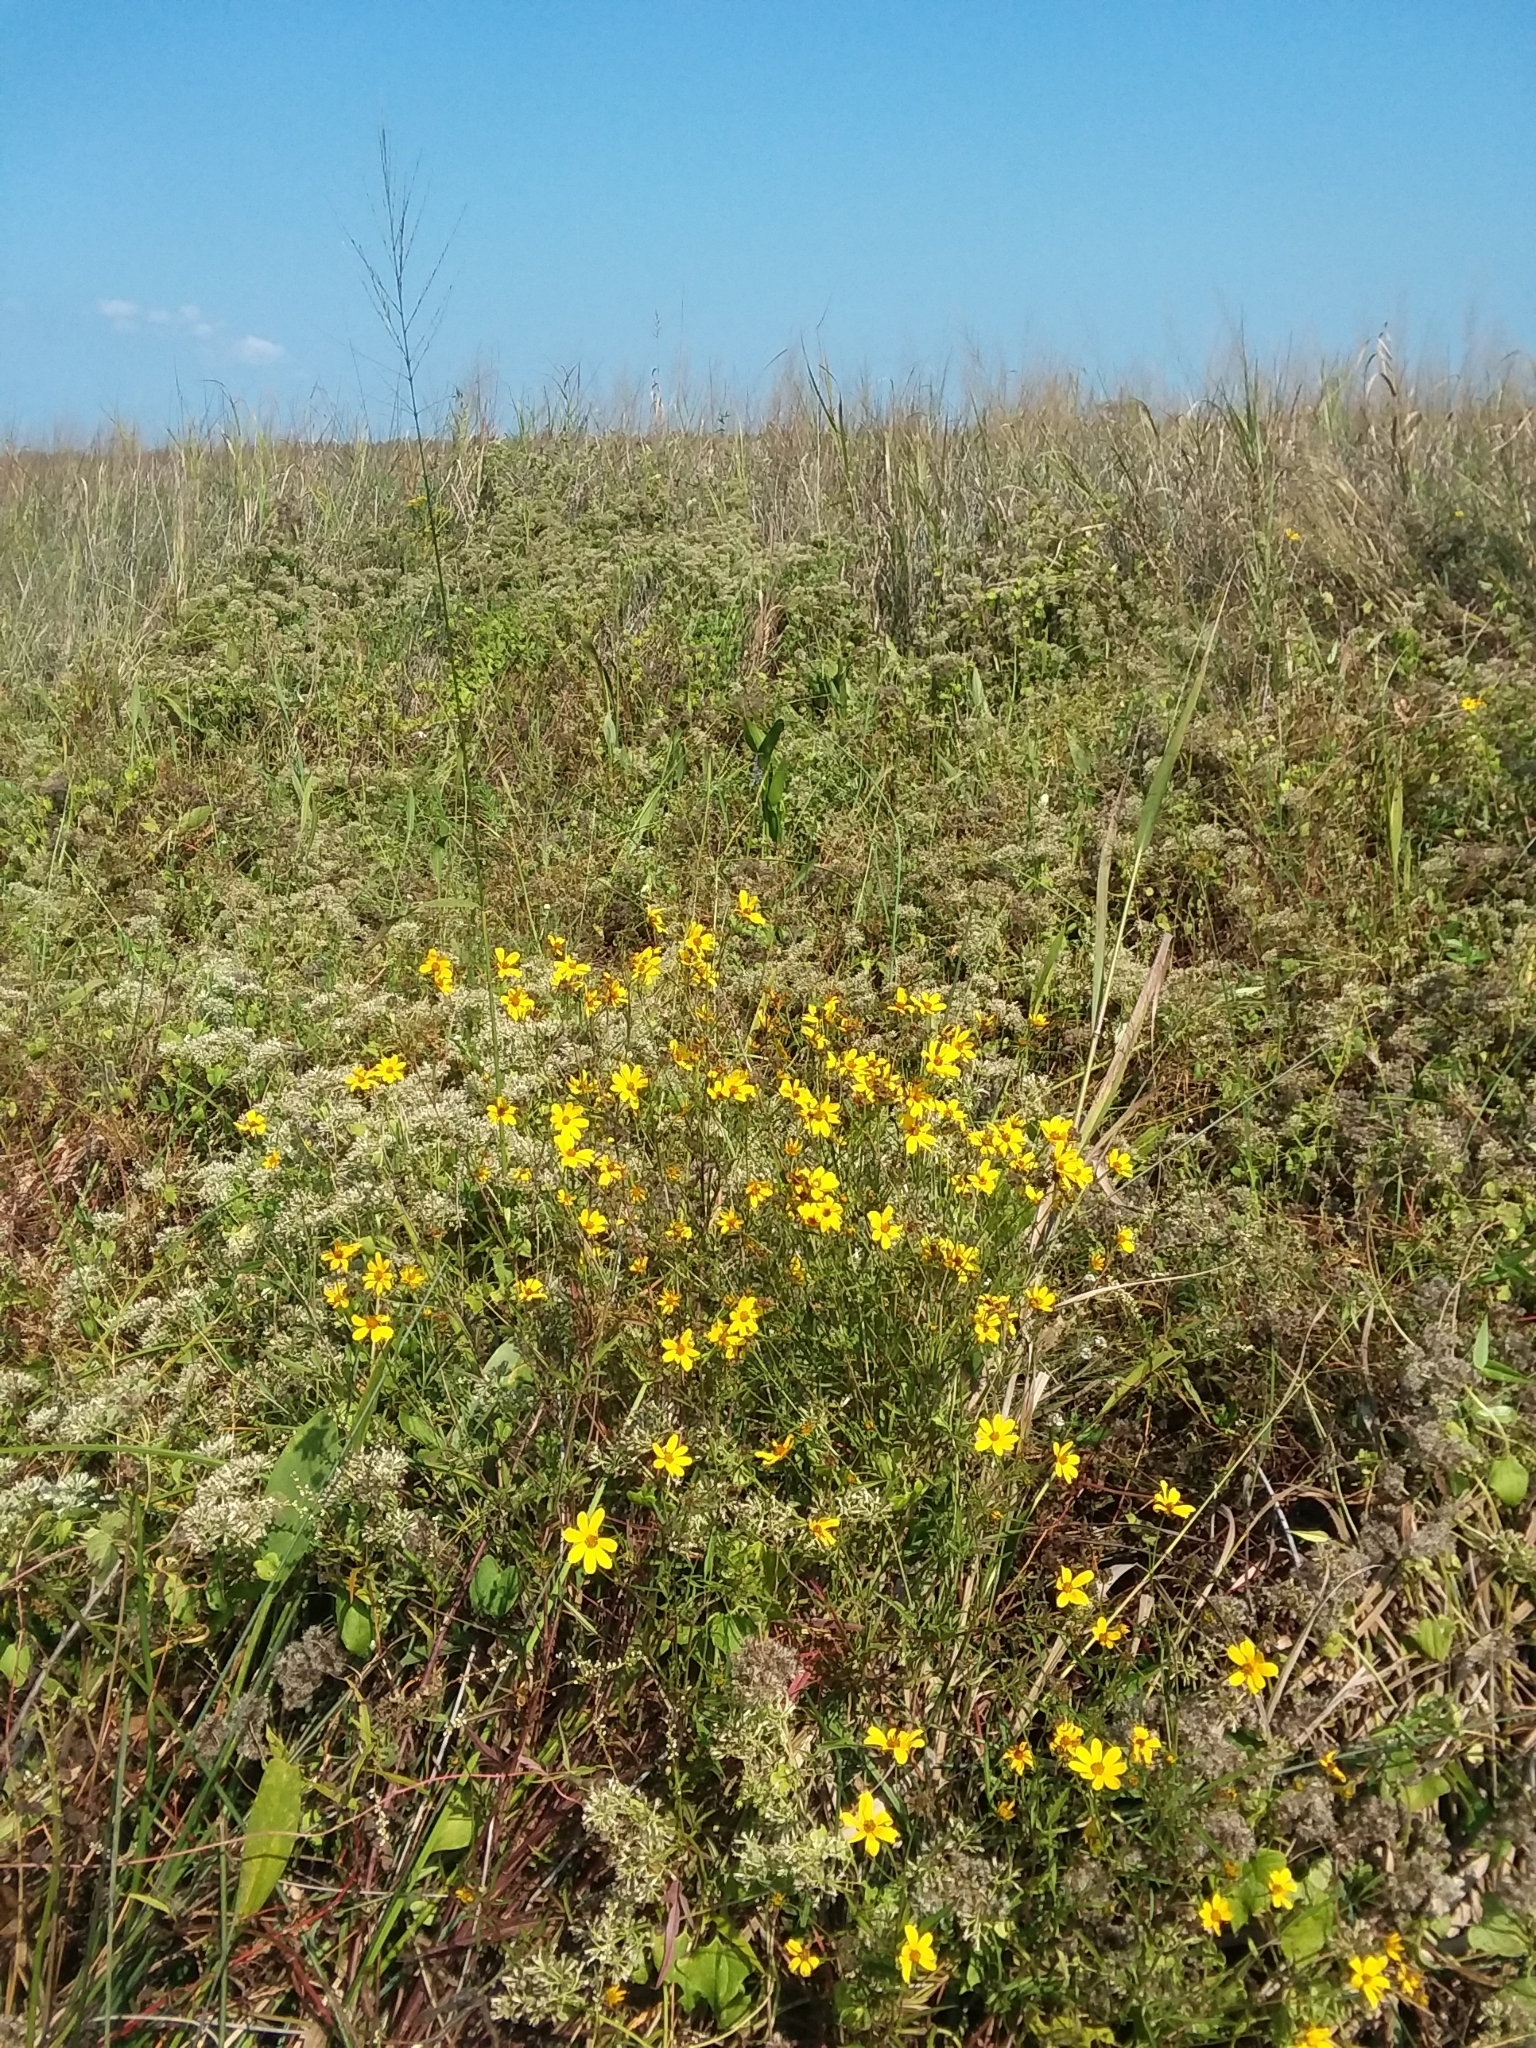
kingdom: Plantae
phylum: Tracheophyta
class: Magnoliopsida
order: Asterales
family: Asteraceae
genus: Bidens
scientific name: Bidens mitis
